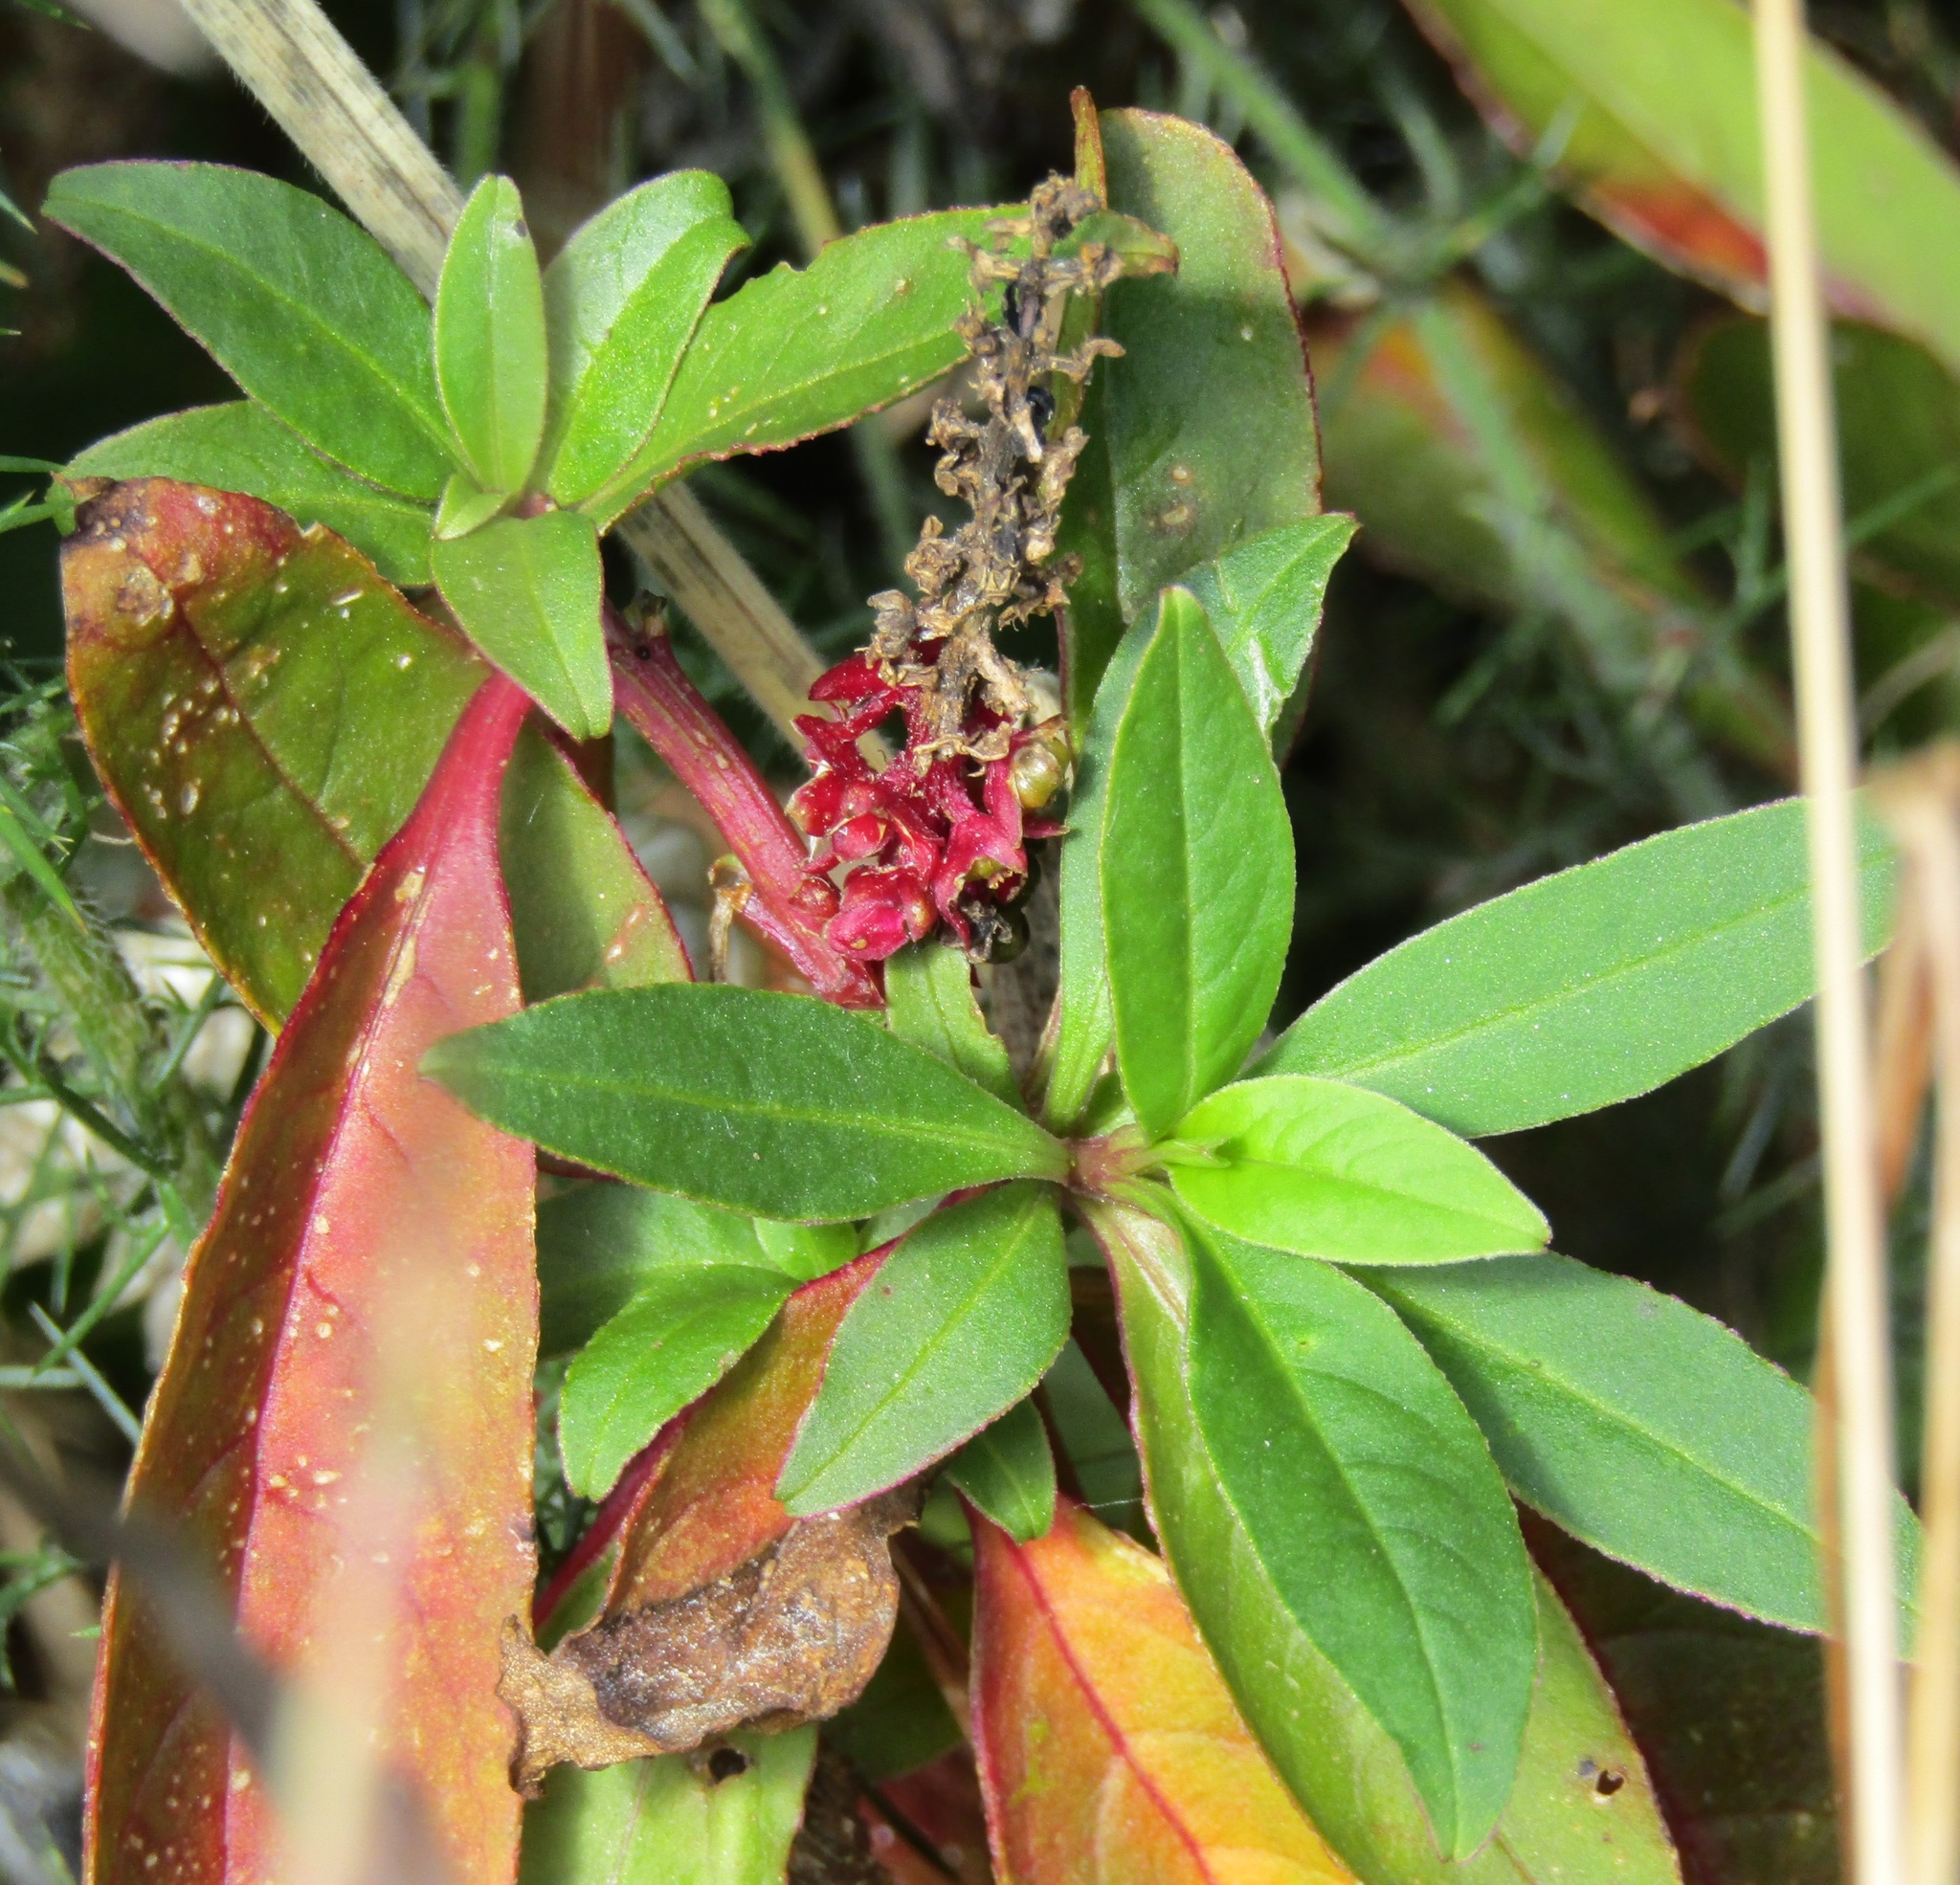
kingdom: Plantae
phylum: Tracheophyta
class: Magnoliopsida
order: Caryophyllales
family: Phytolaccaceae
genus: Phytolacca
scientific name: Phytolacca icosandra
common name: Button pokeweed
